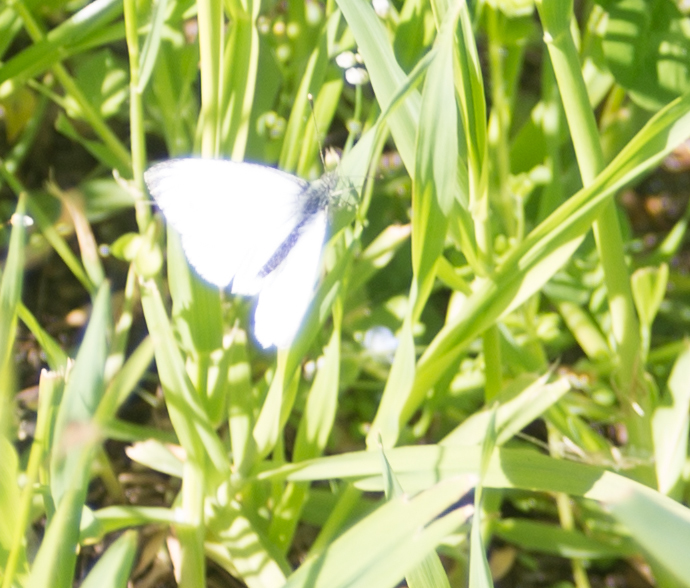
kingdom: Animalia
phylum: Arthropoda
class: Insecta
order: Lepidoptera
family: Pieridae
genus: Pieris
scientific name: Pieris napi
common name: Green-veined white
